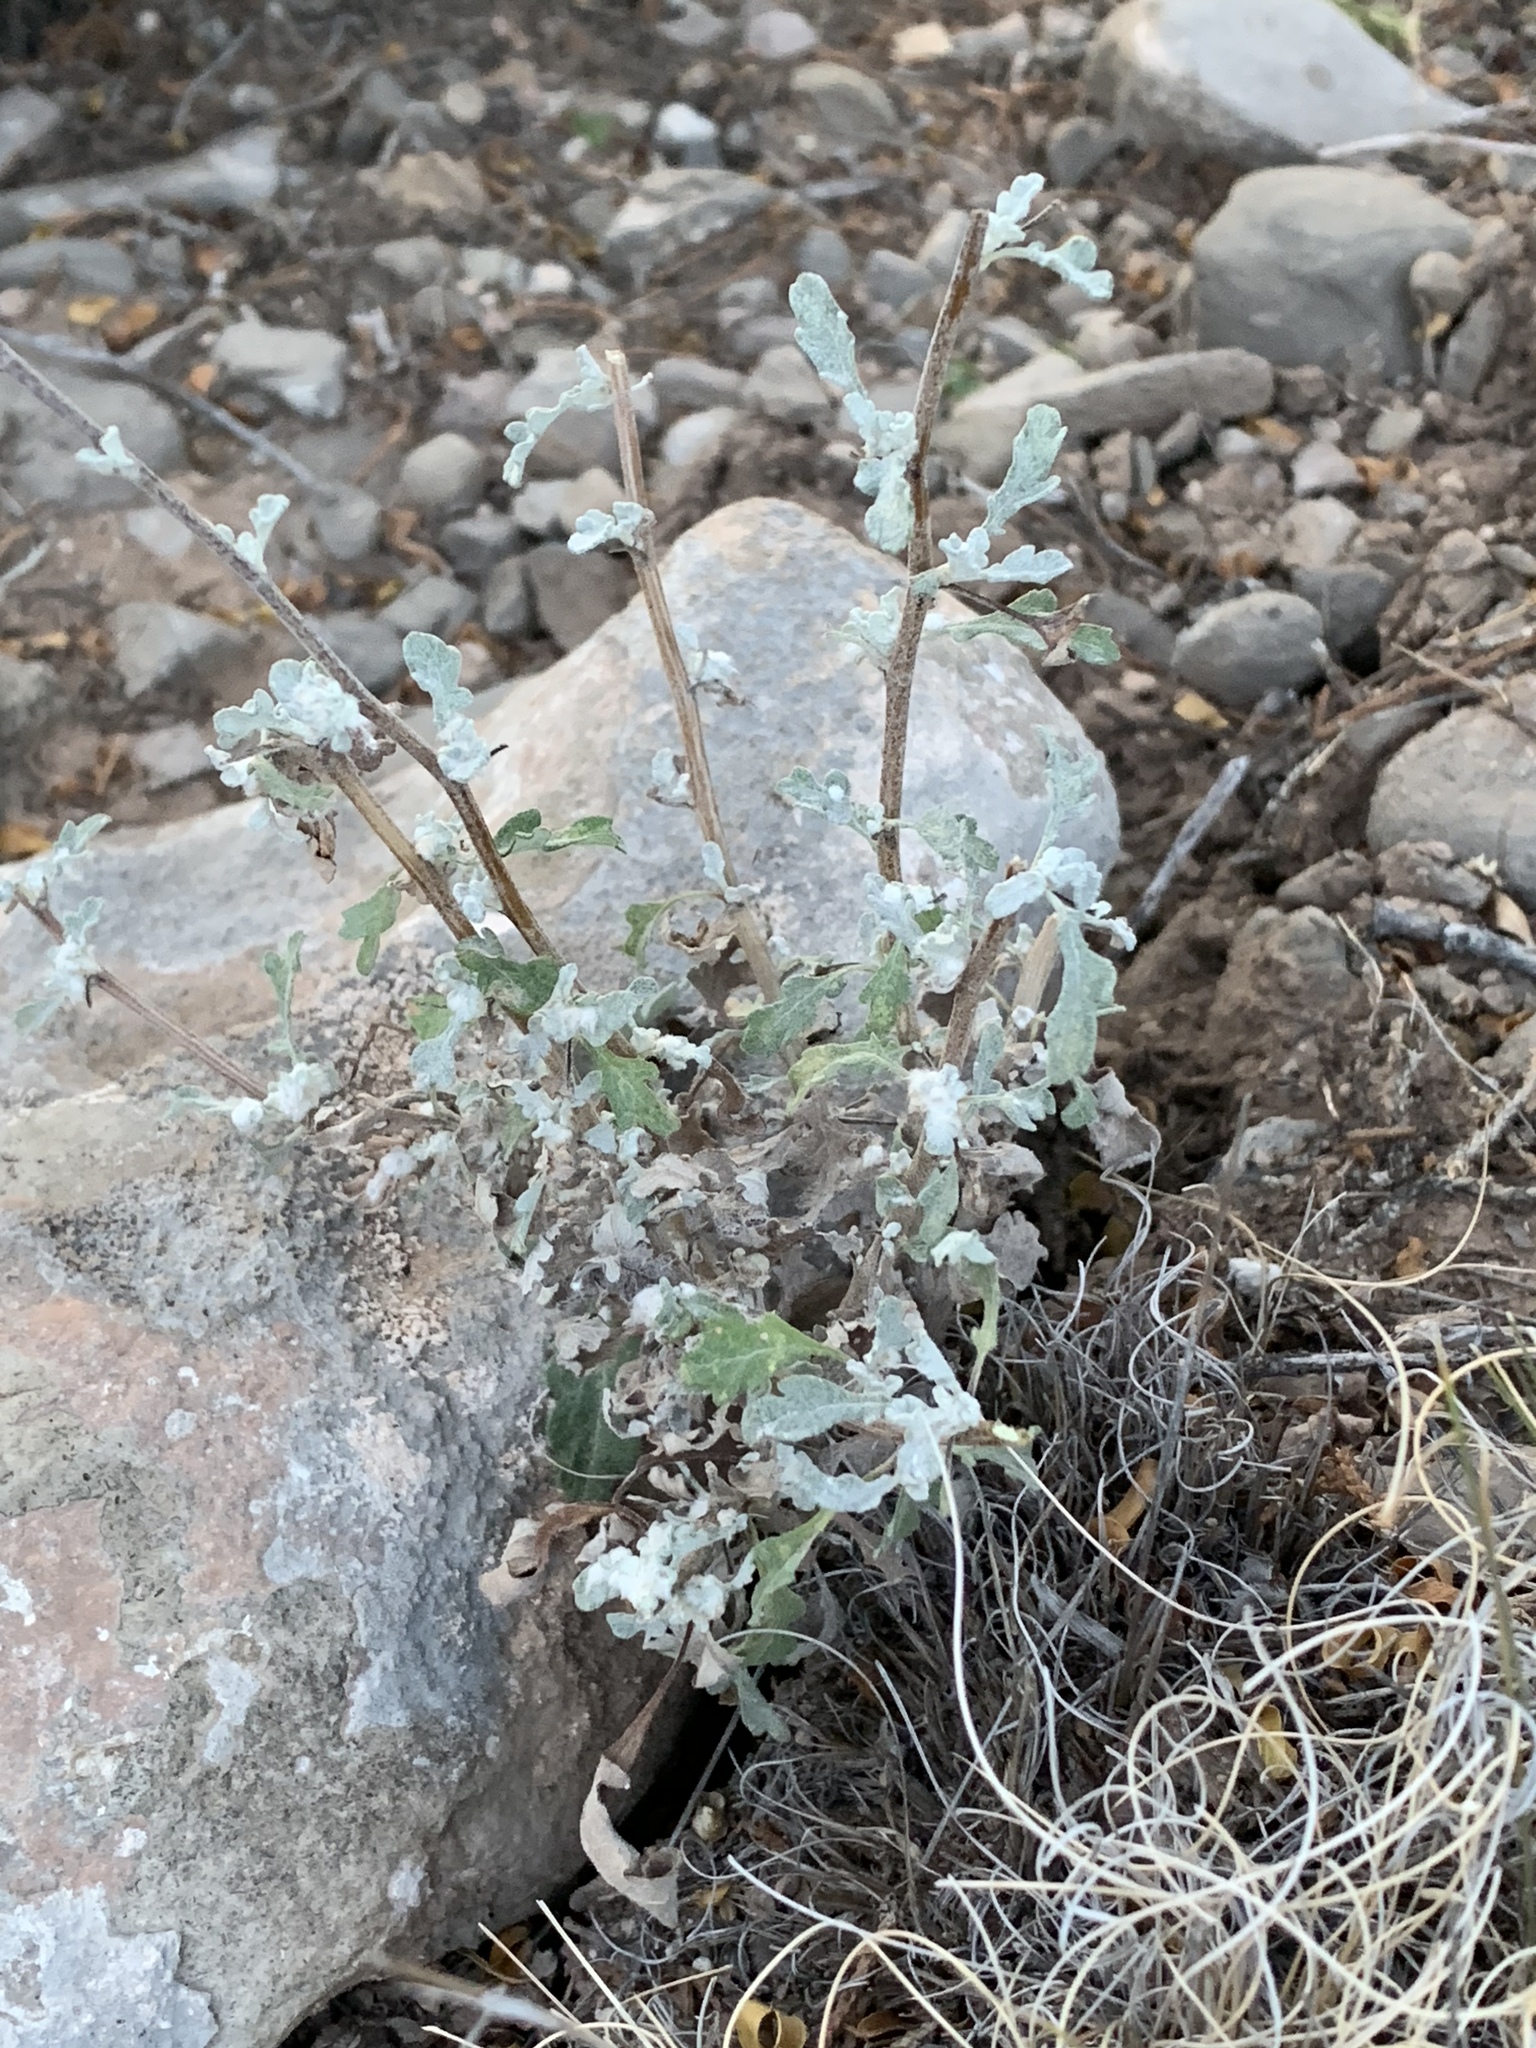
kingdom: Plantae
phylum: Tracheophyta
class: Magnoliopsida
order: Asterales
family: Asteraceae
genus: Parthenium
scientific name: Parthenium incanum
